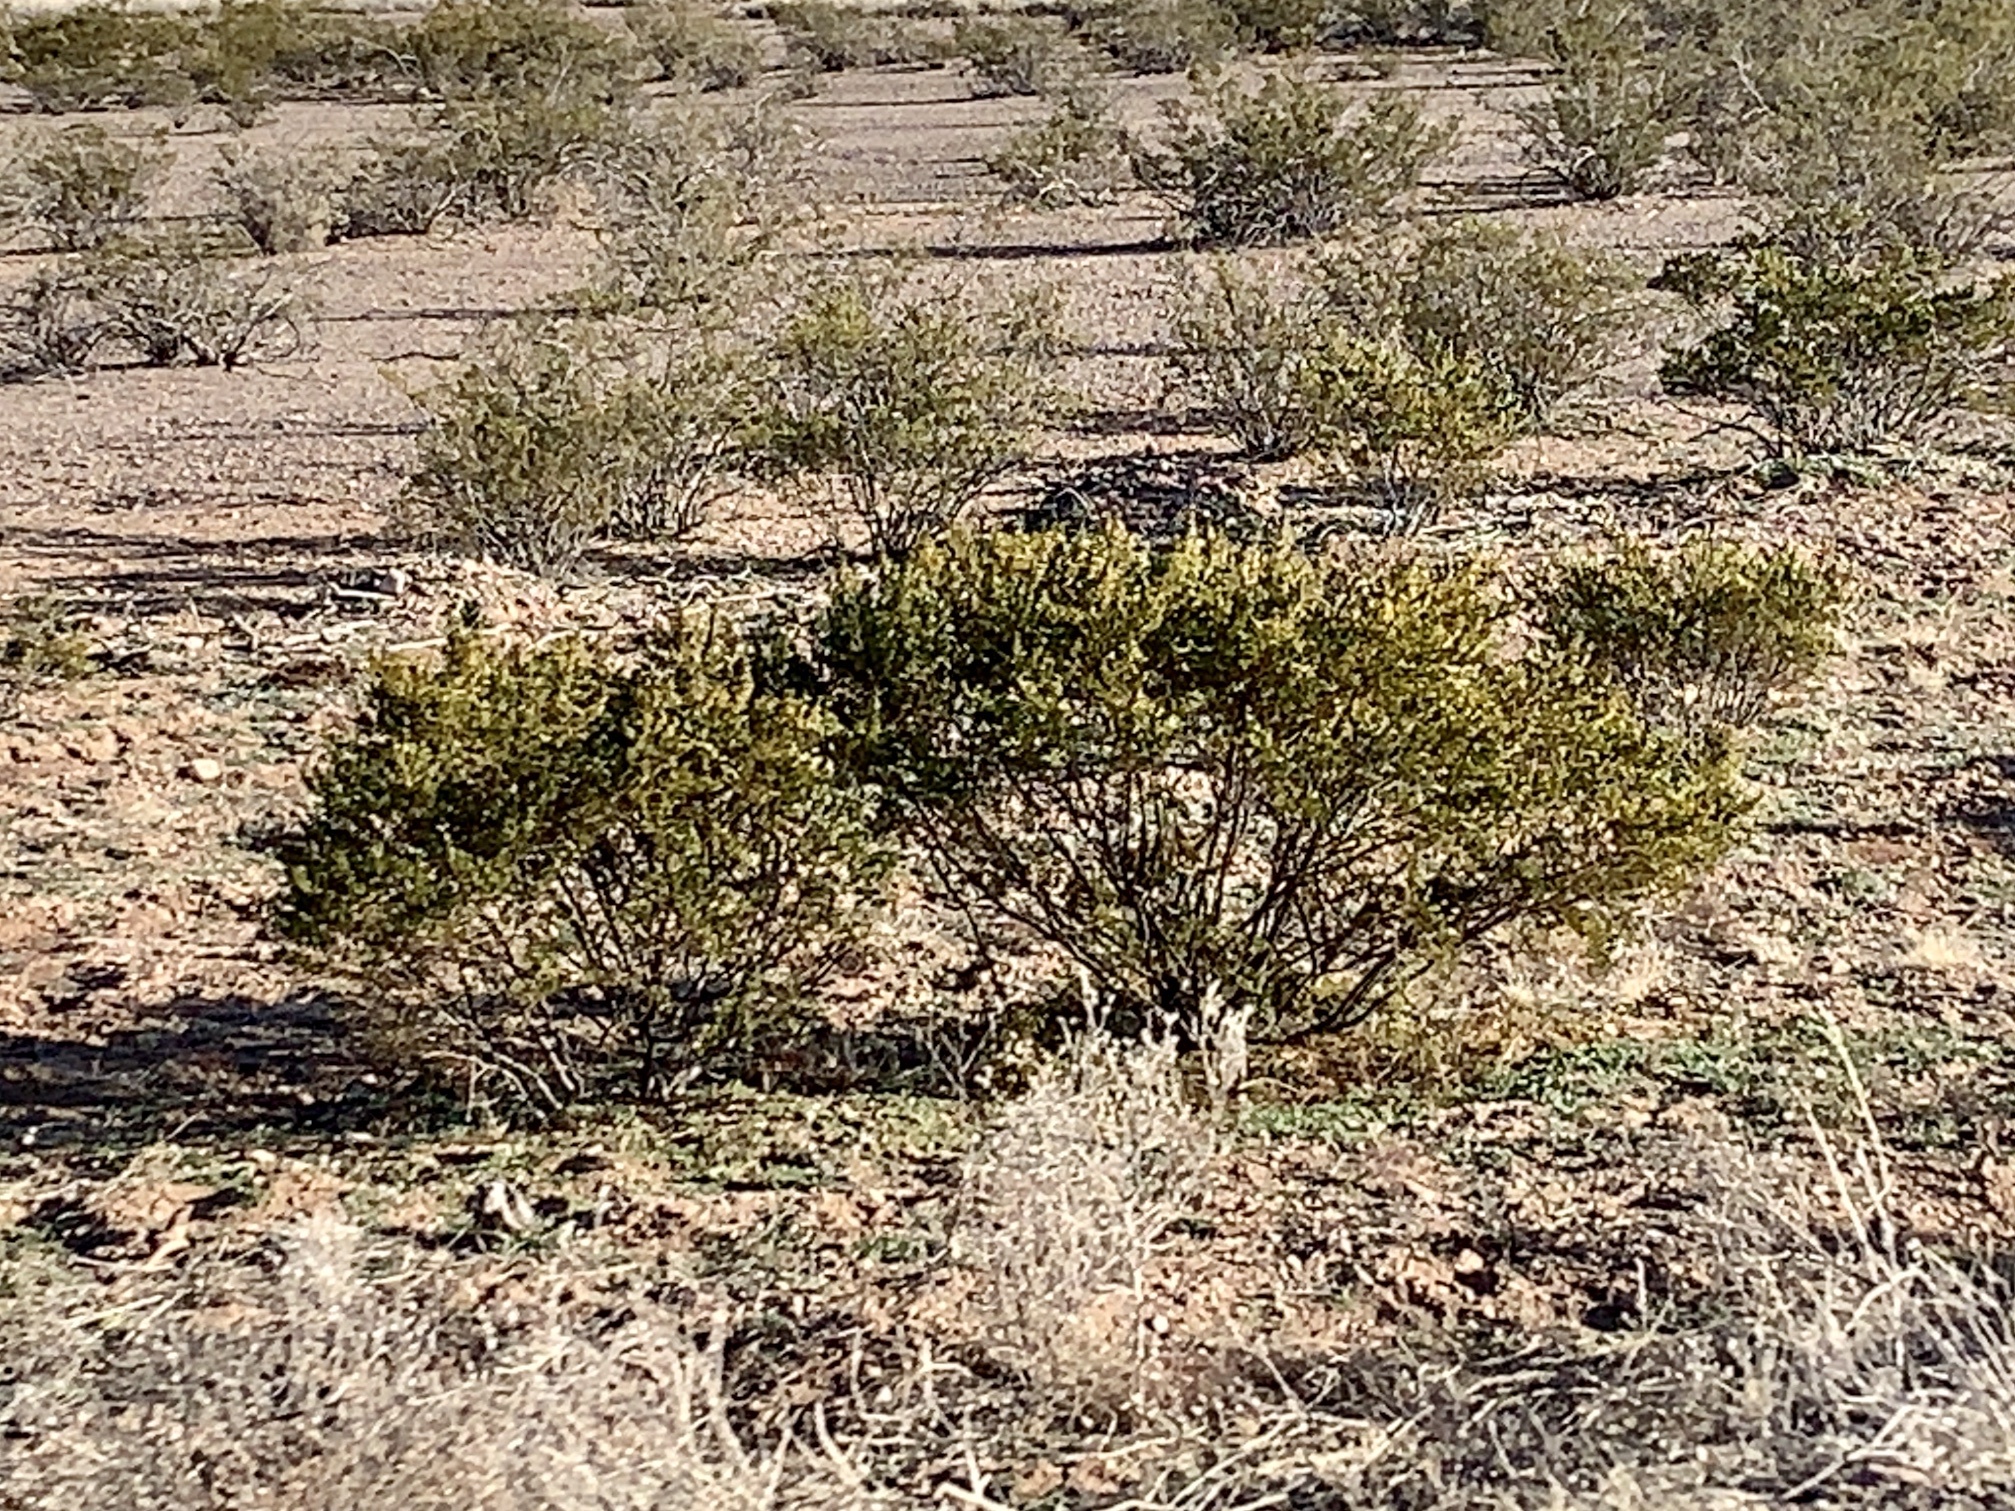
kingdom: Plantae
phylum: Tracheophyta
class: Magnoliopsida
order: Zygophyllales
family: Zygophyllaceae
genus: Larrea
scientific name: Larrea tridentata
